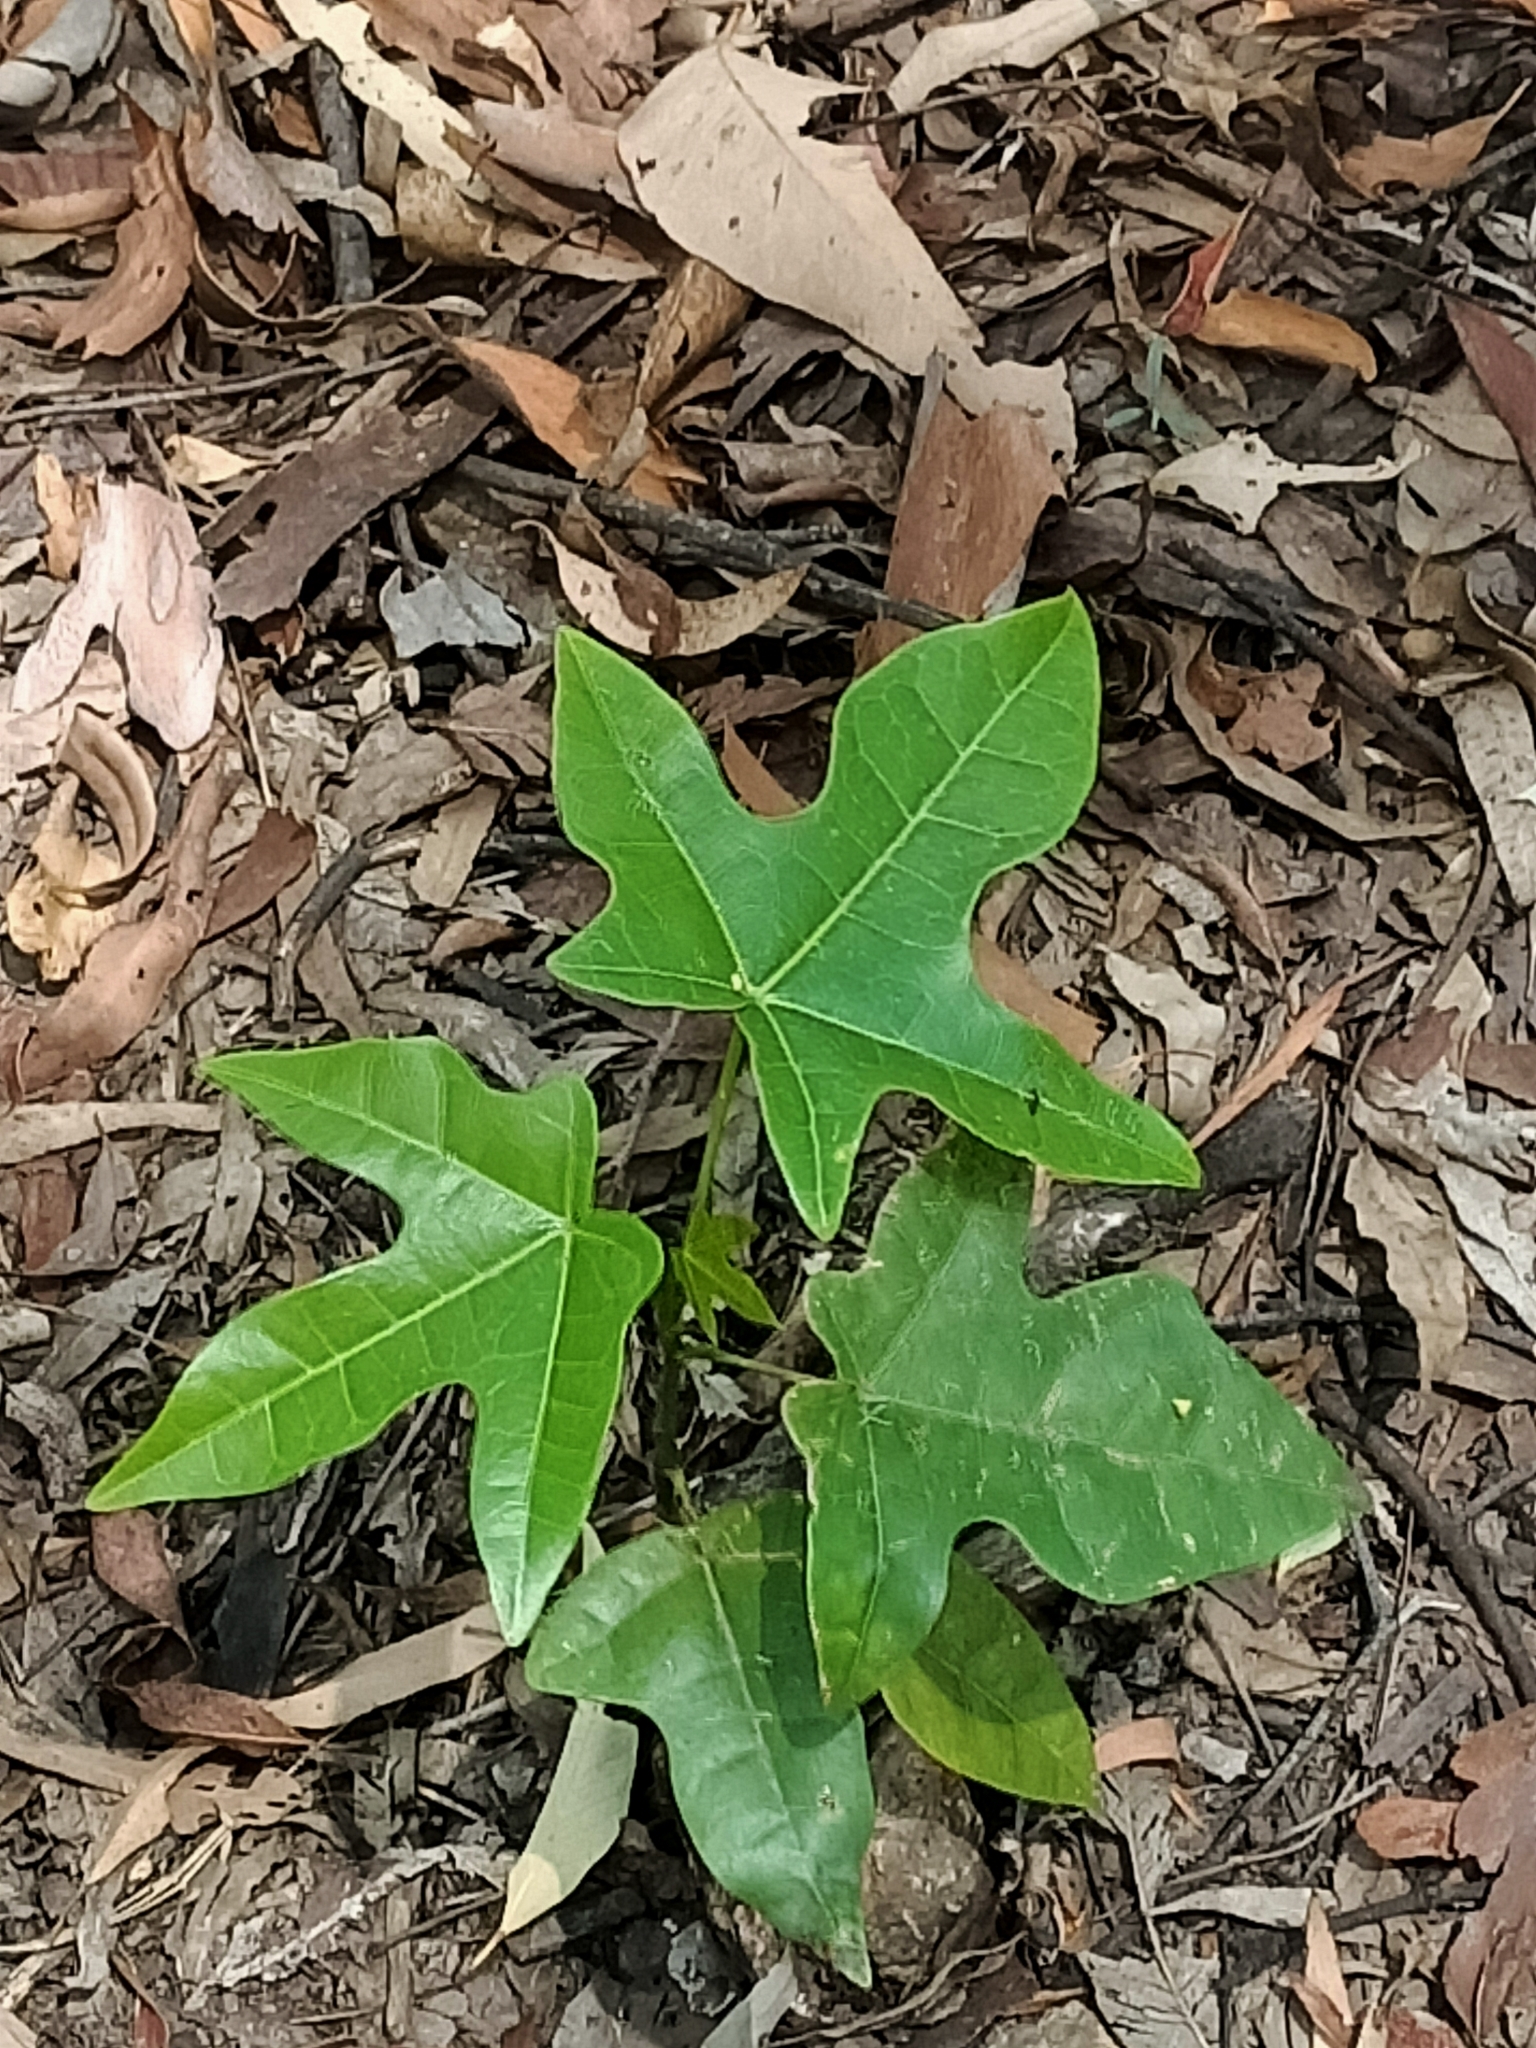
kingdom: Plantae
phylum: Tracheophyta
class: Magnoliopsida
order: Malvales
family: Malvaceae
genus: Brachychiton
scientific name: Brachychiton acerifolius
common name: Illawarra flame tree
